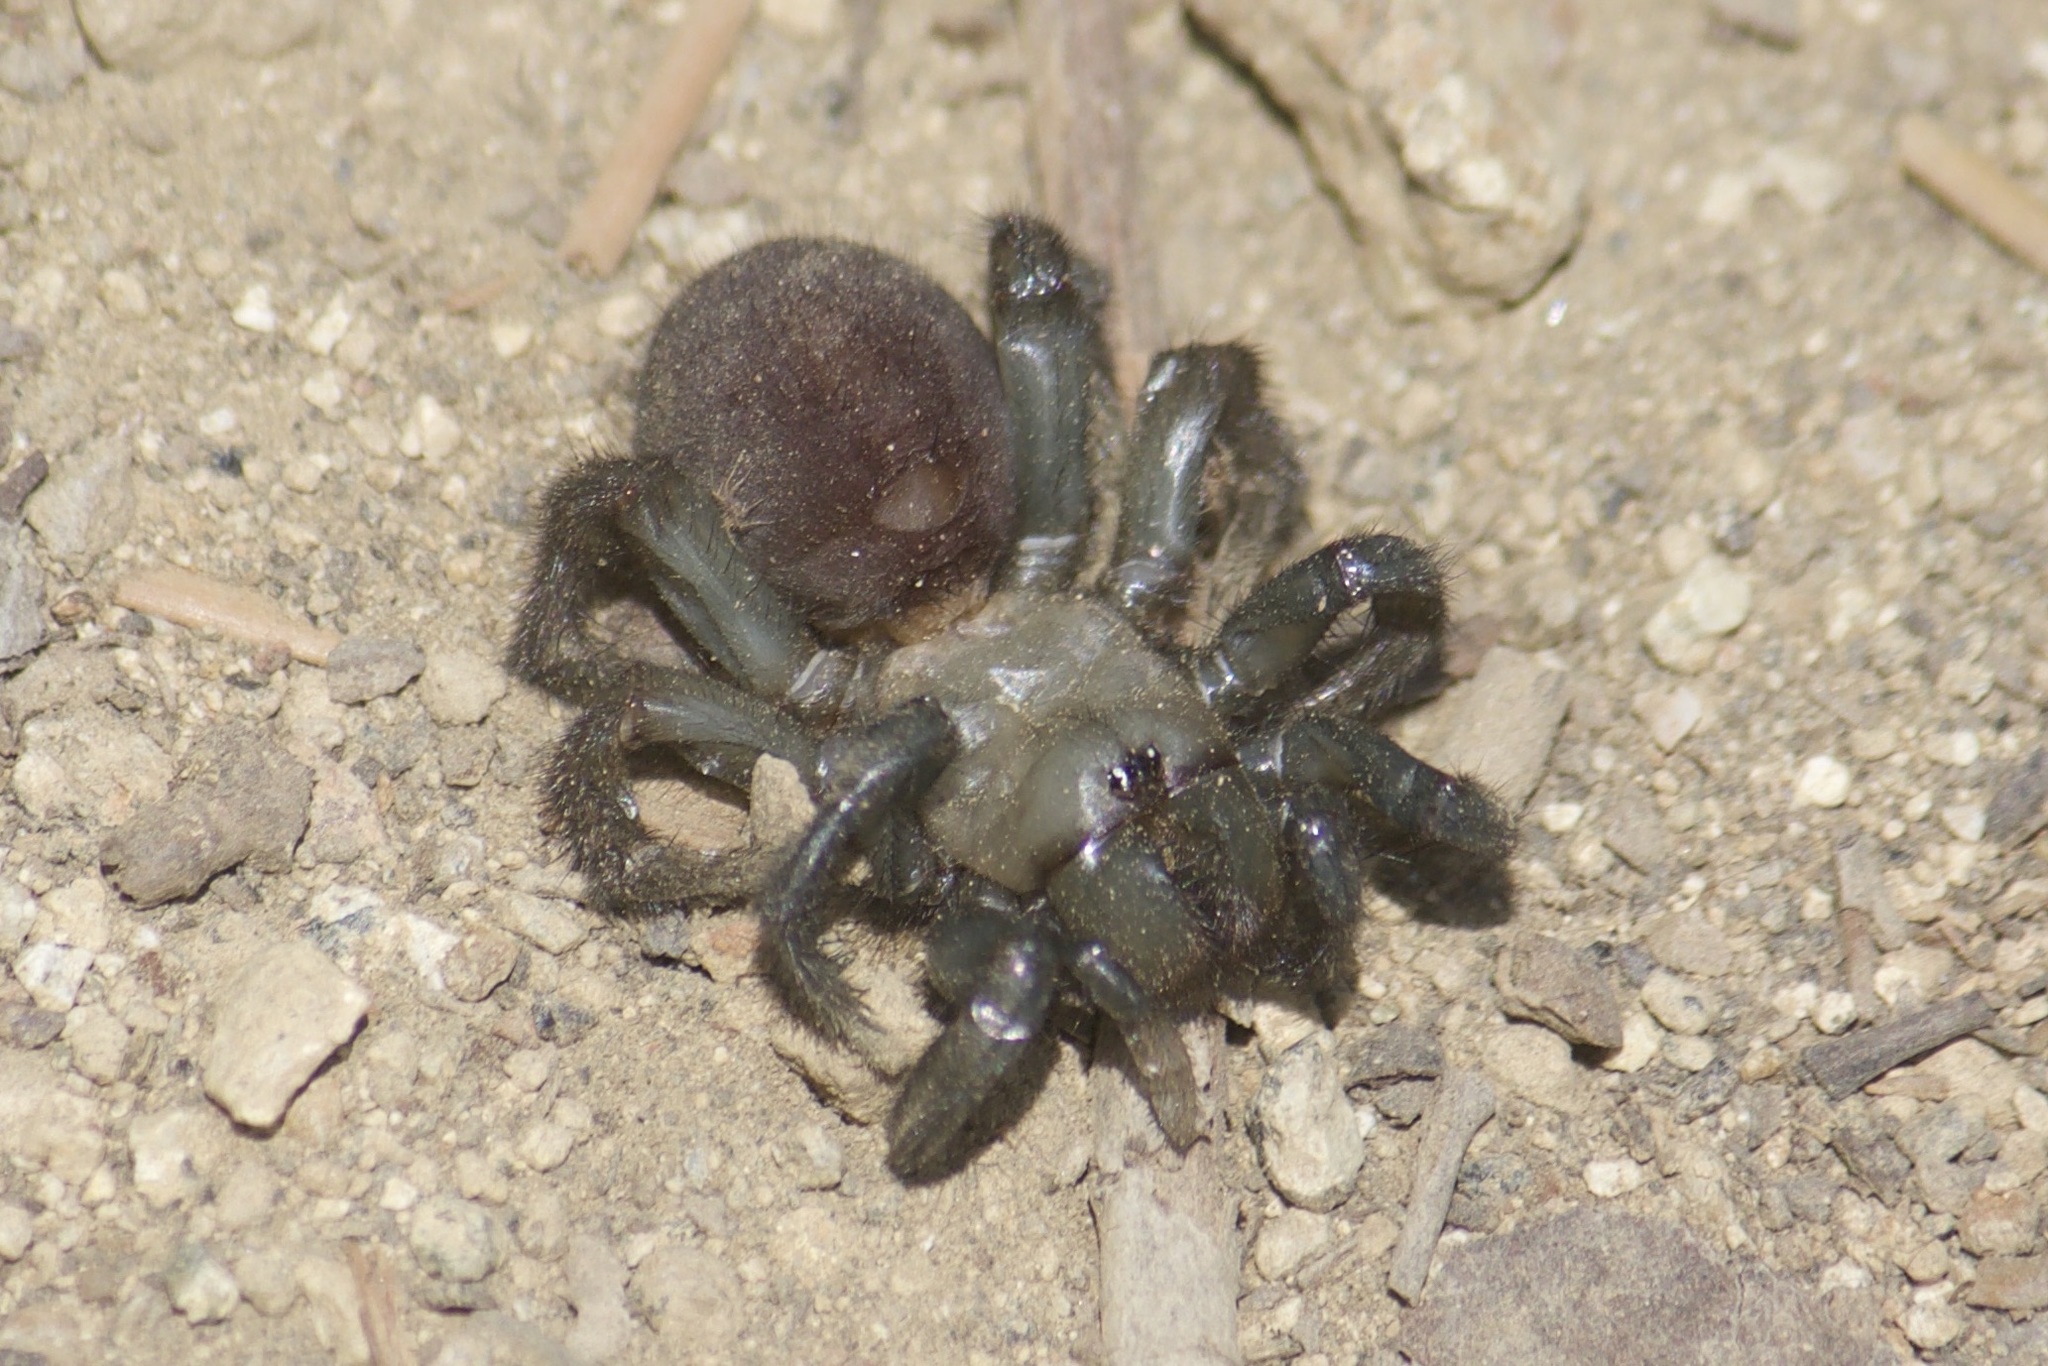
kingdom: Animalia
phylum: Arthropoda
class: Arachnida
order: Araneae
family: Antrodiaetidae
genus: Antrodiaetus
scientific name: Antrodiaetus pacificus
